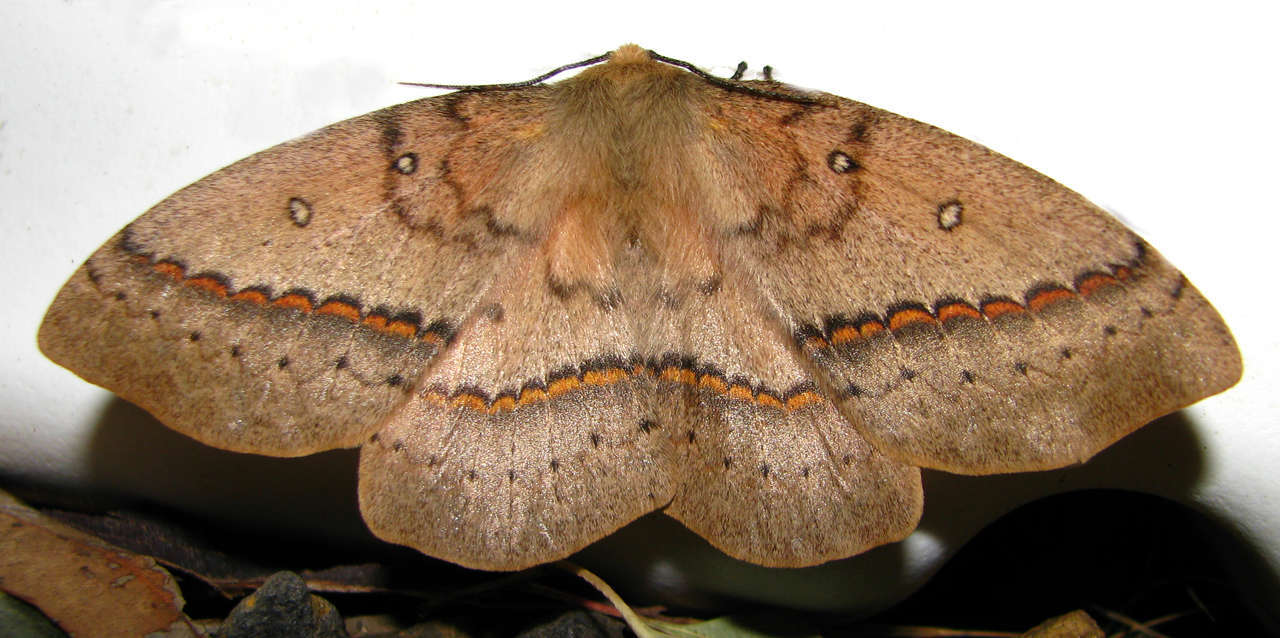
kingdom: Animalia
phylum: Arthropoda
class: Insecta
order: Lepidoptera
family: Anthelidae
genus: Anthela
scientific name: Anthela nicothoe
